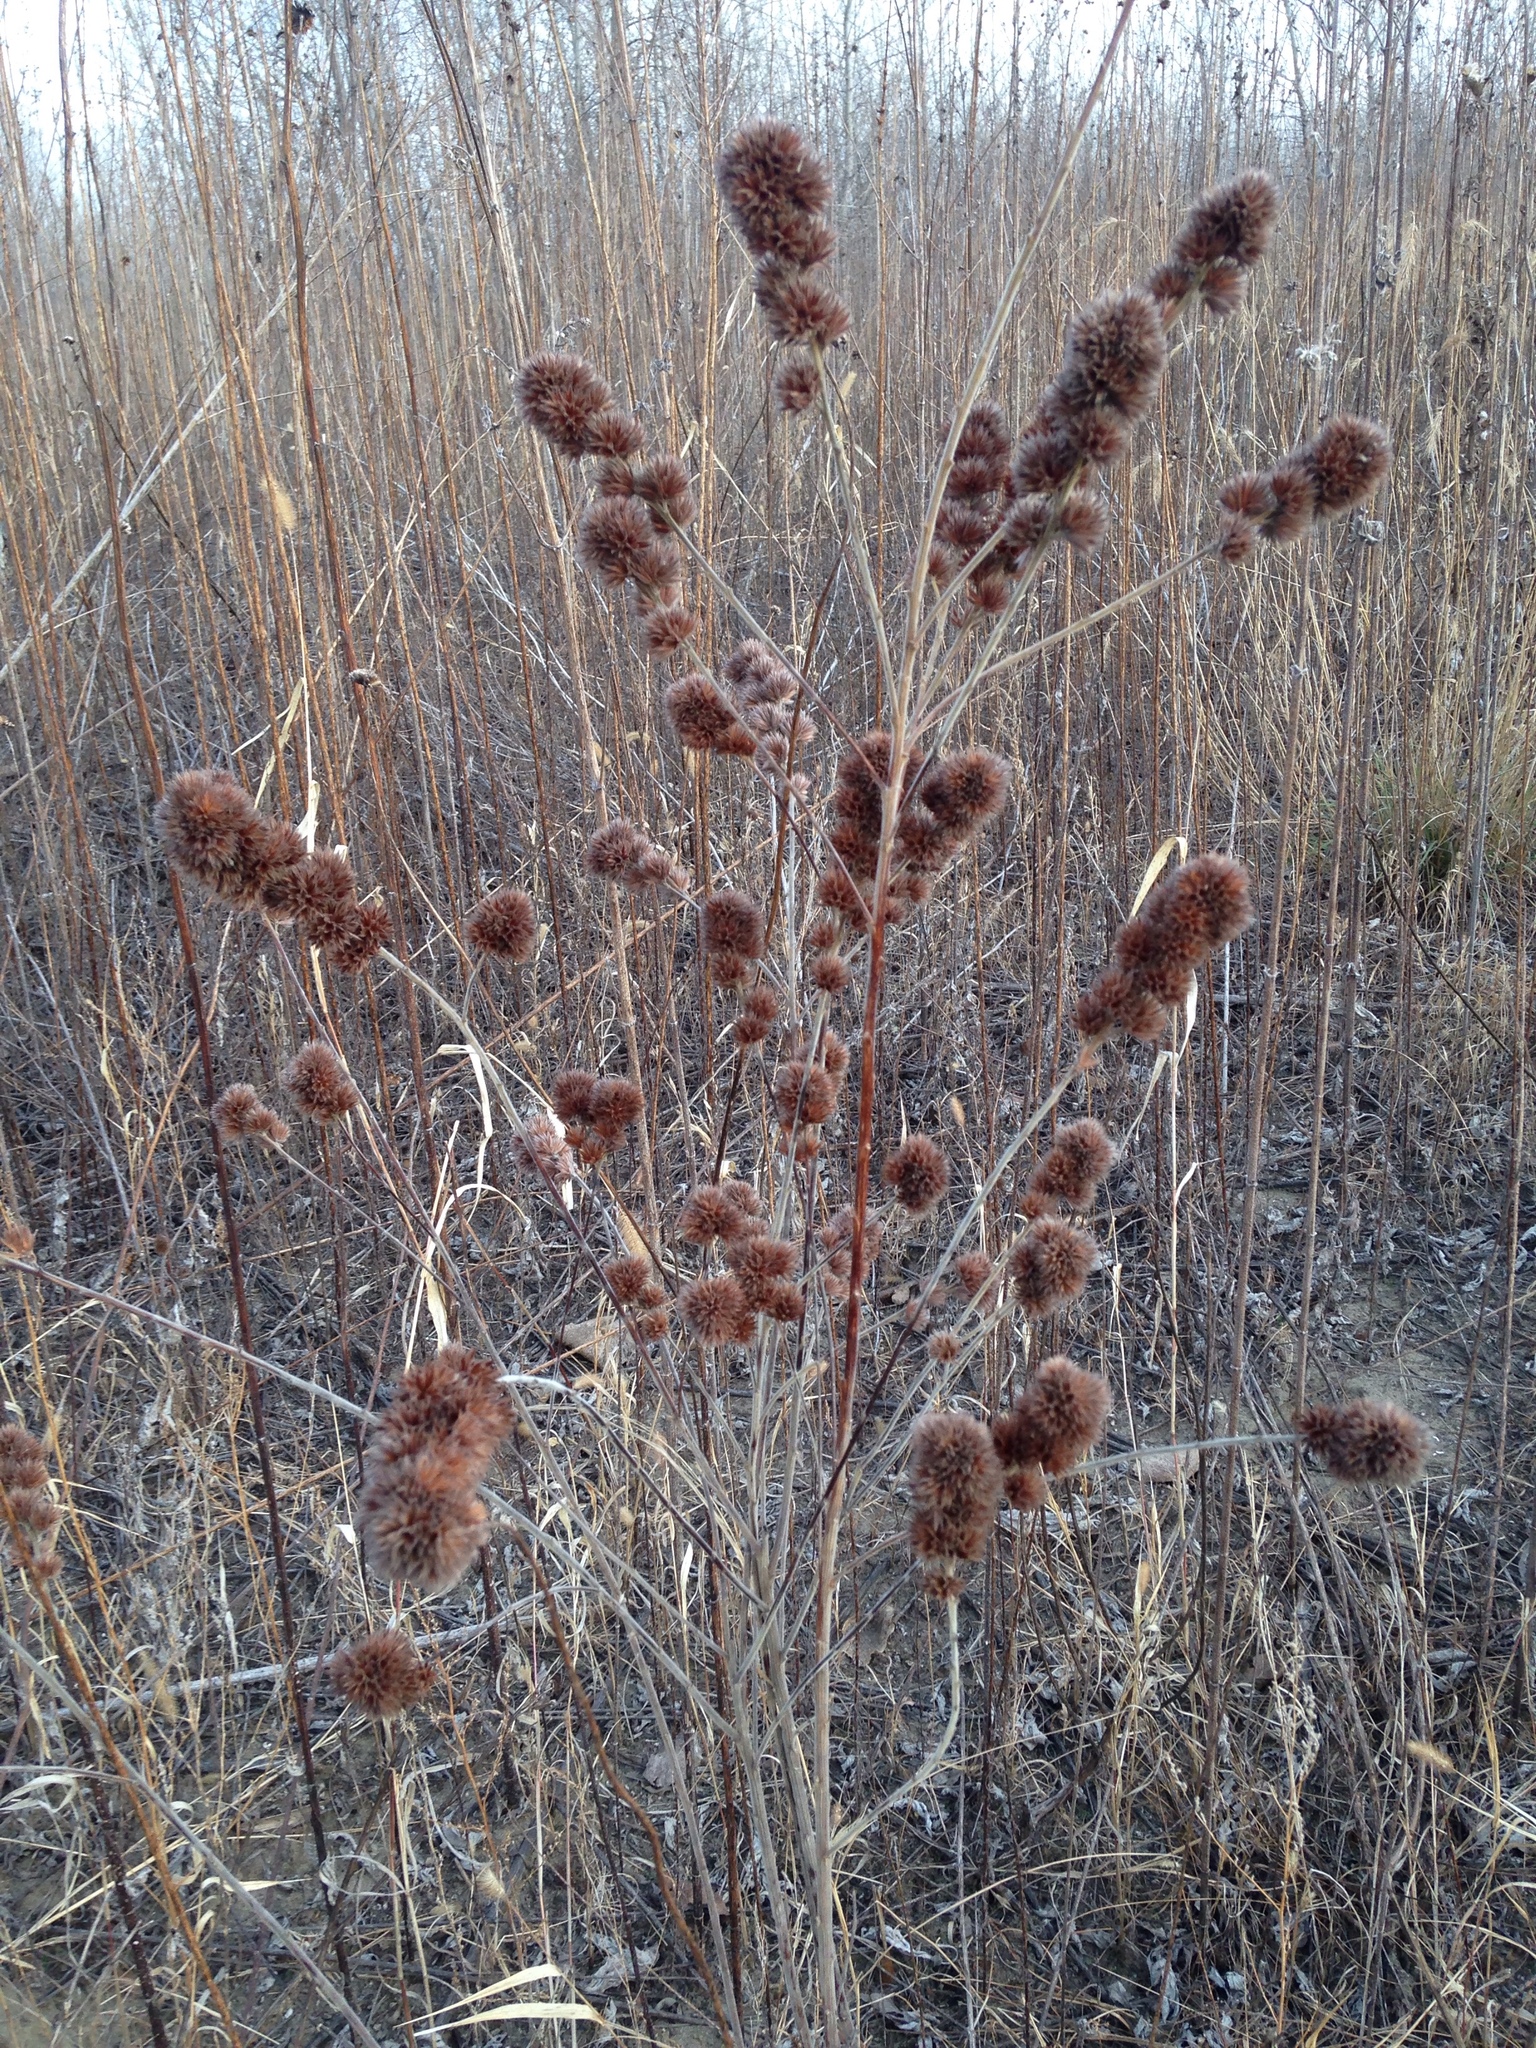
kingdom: Plantae
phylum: Tracheophyta
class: Magnoliopsida
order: Fabales
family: Fabaceae
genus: Lespedeza
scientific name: Lespedeza capitata
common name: Dusty clover
